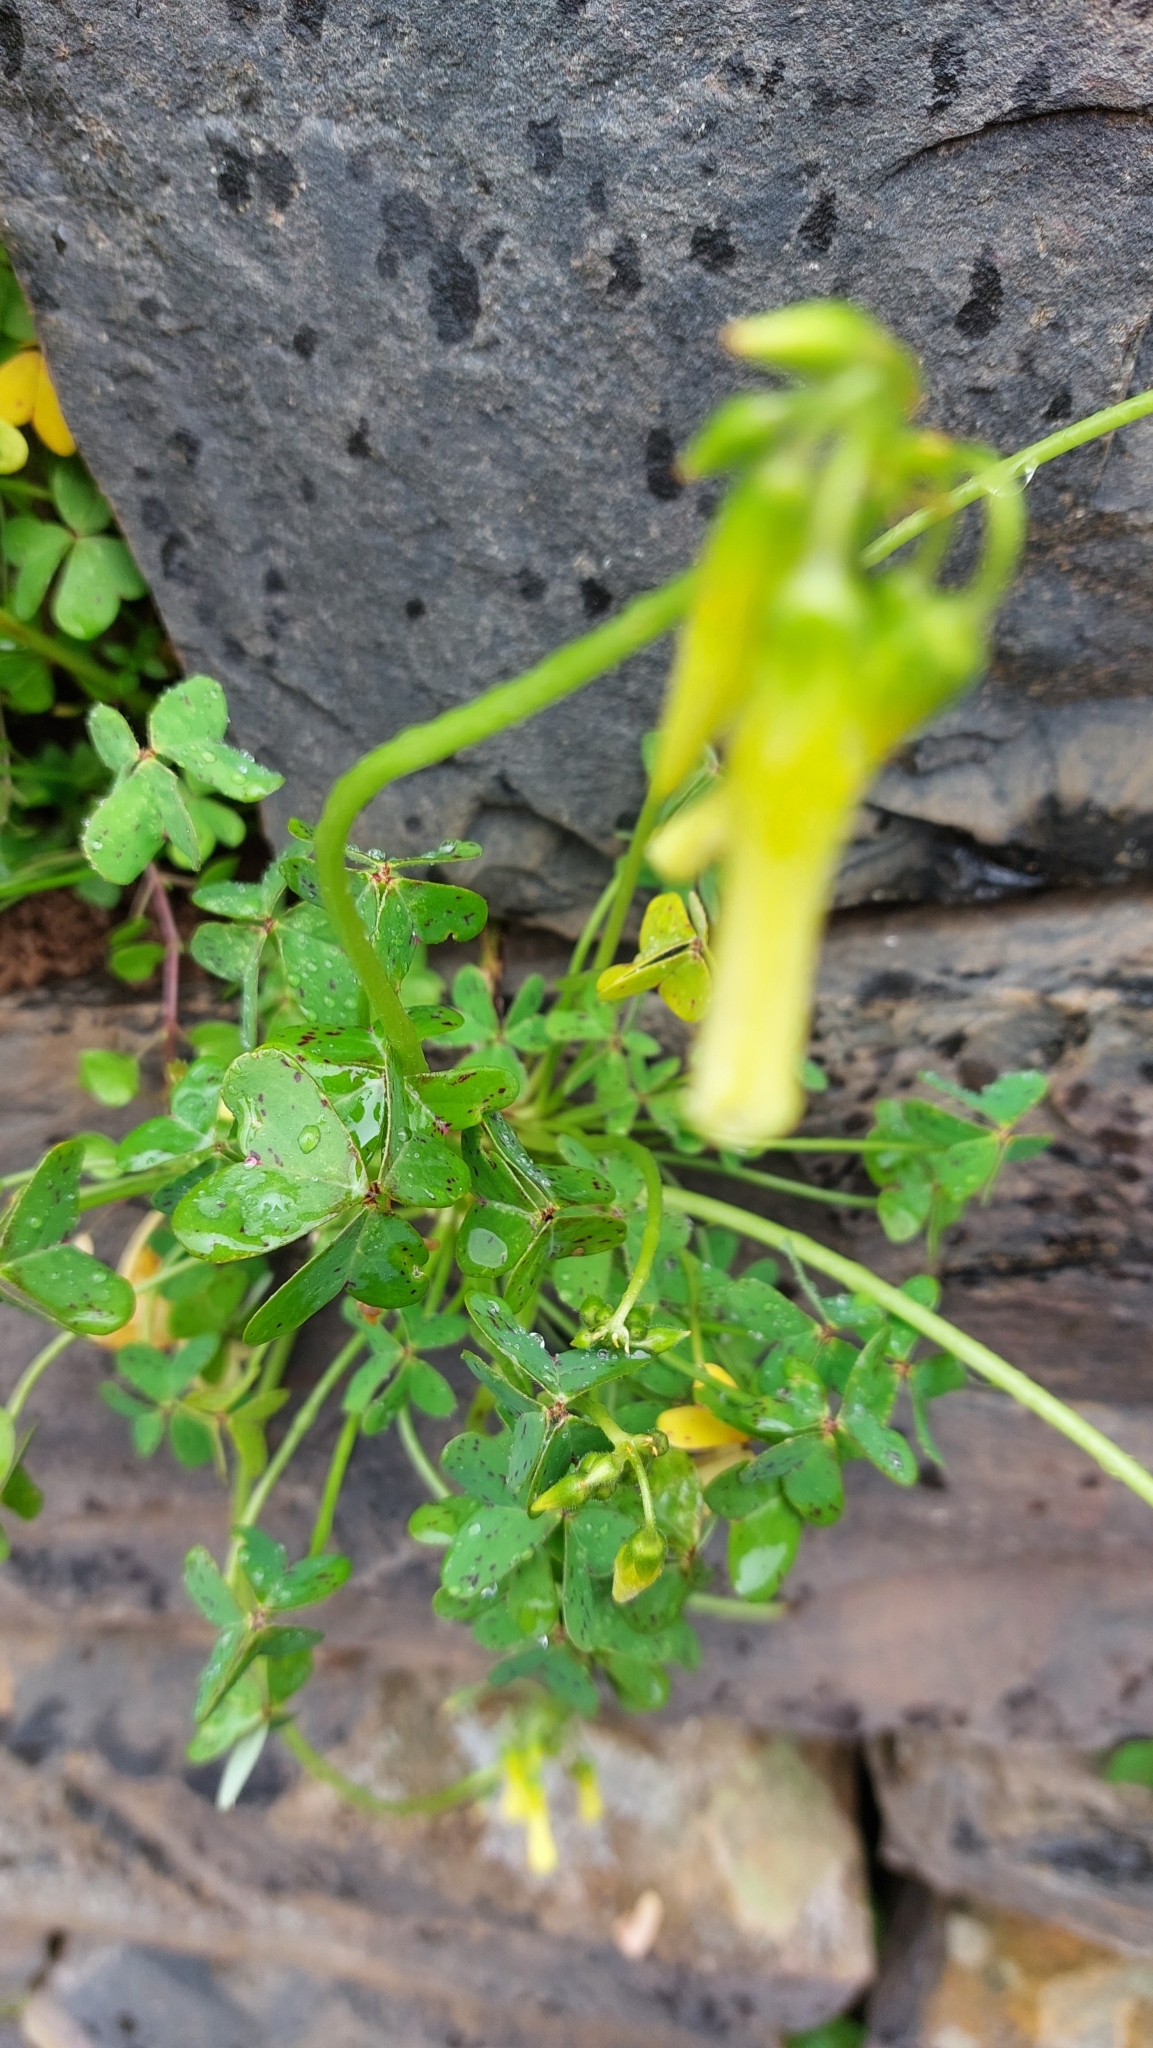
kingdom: Plantae
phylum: Tracheophyta
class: Magnoliopsida
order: Oxalidales
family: Oxalidaceae
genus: Oxalis
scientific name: Oxalis pes-caprae
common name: Bermuda-buttercup
